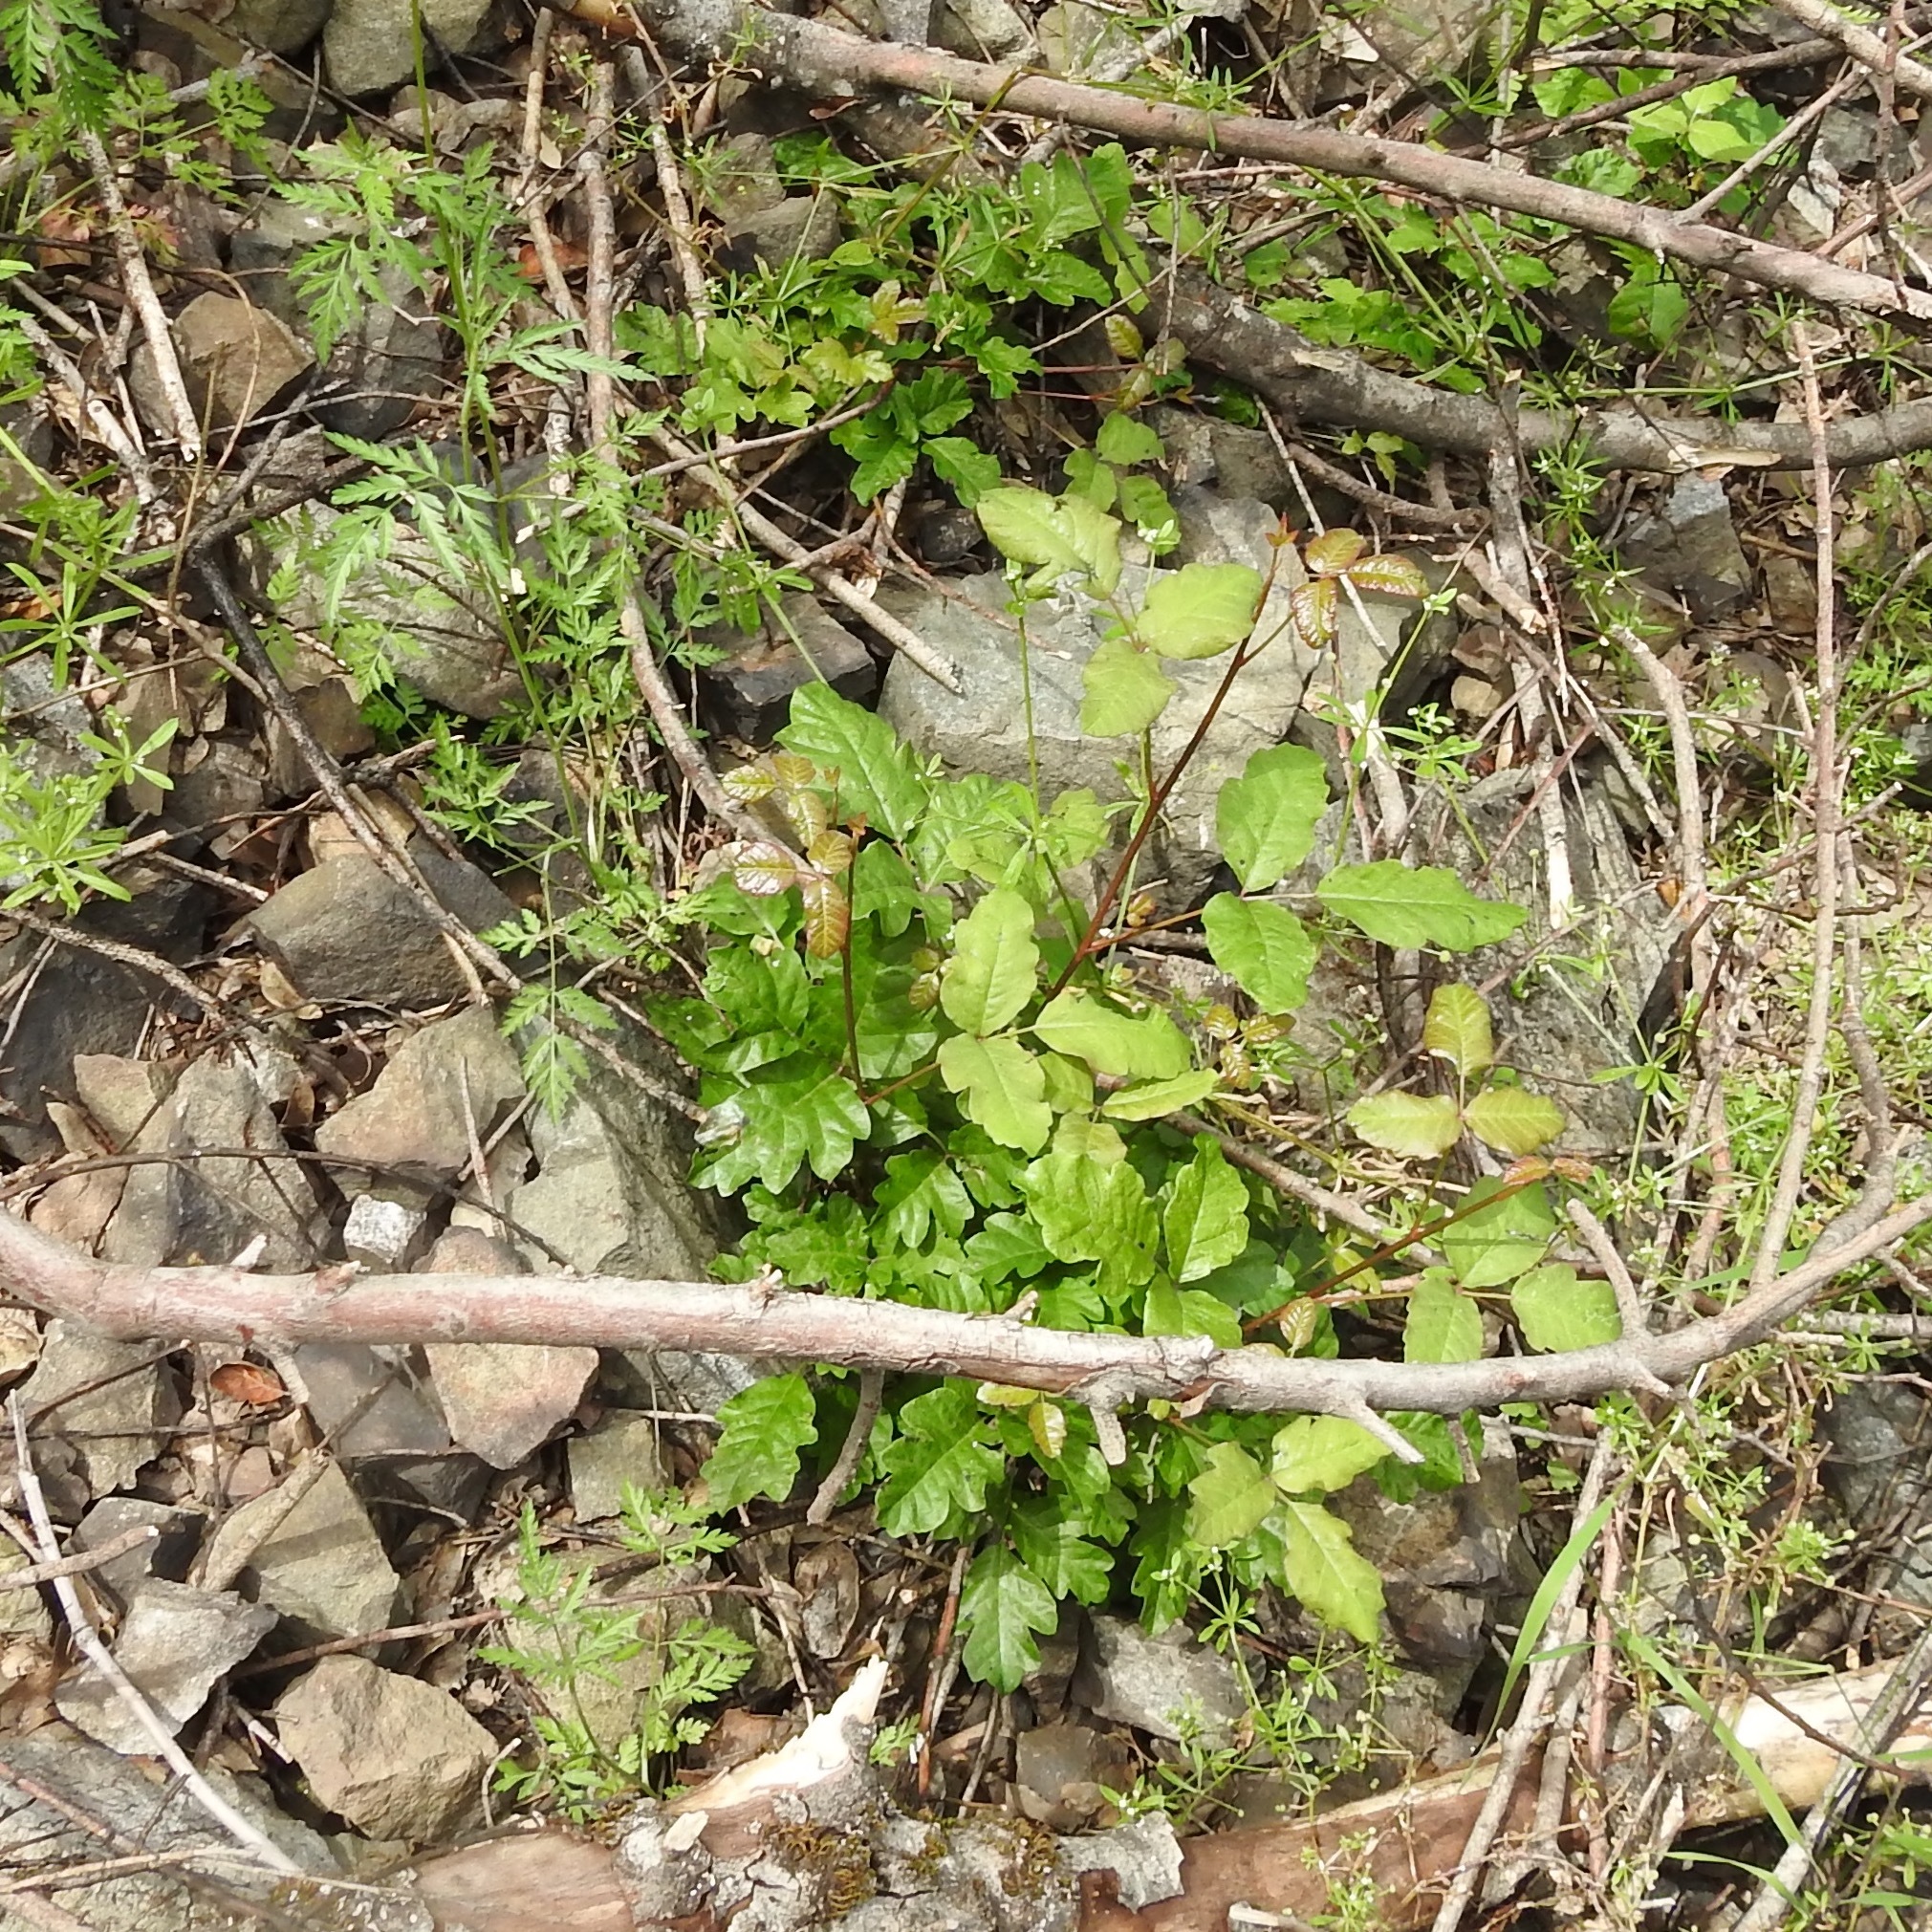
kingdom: Plantae
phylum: Tracheophyta
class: Magnoliopsida
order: Sapindales
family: Anacardiaceae
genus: Toxicodendron
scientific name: Toxicodendron diversilobum
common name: Pacific poison-oak
